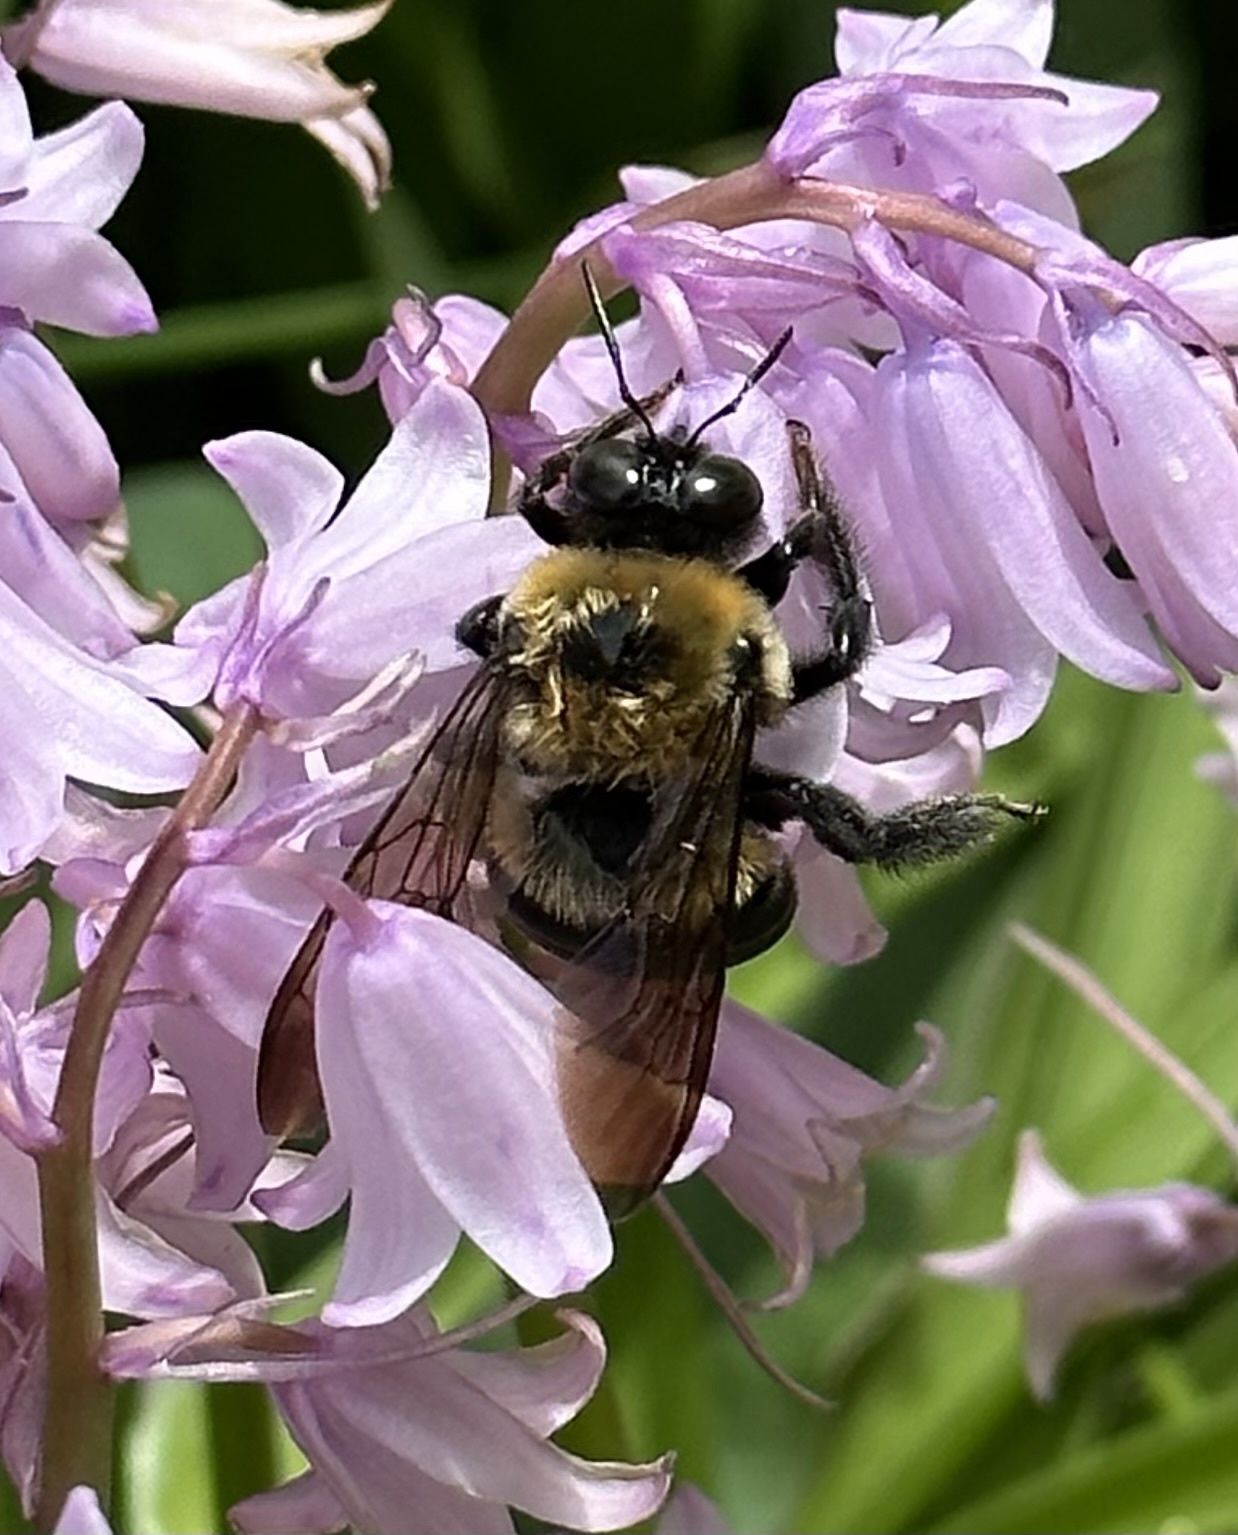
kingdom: Animalia
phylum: Arthropoda
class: Insecta
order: Hymenoptera
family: Apidae
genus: Xylocopa
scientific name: Xylocopa virginica
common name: Carpenter bee
